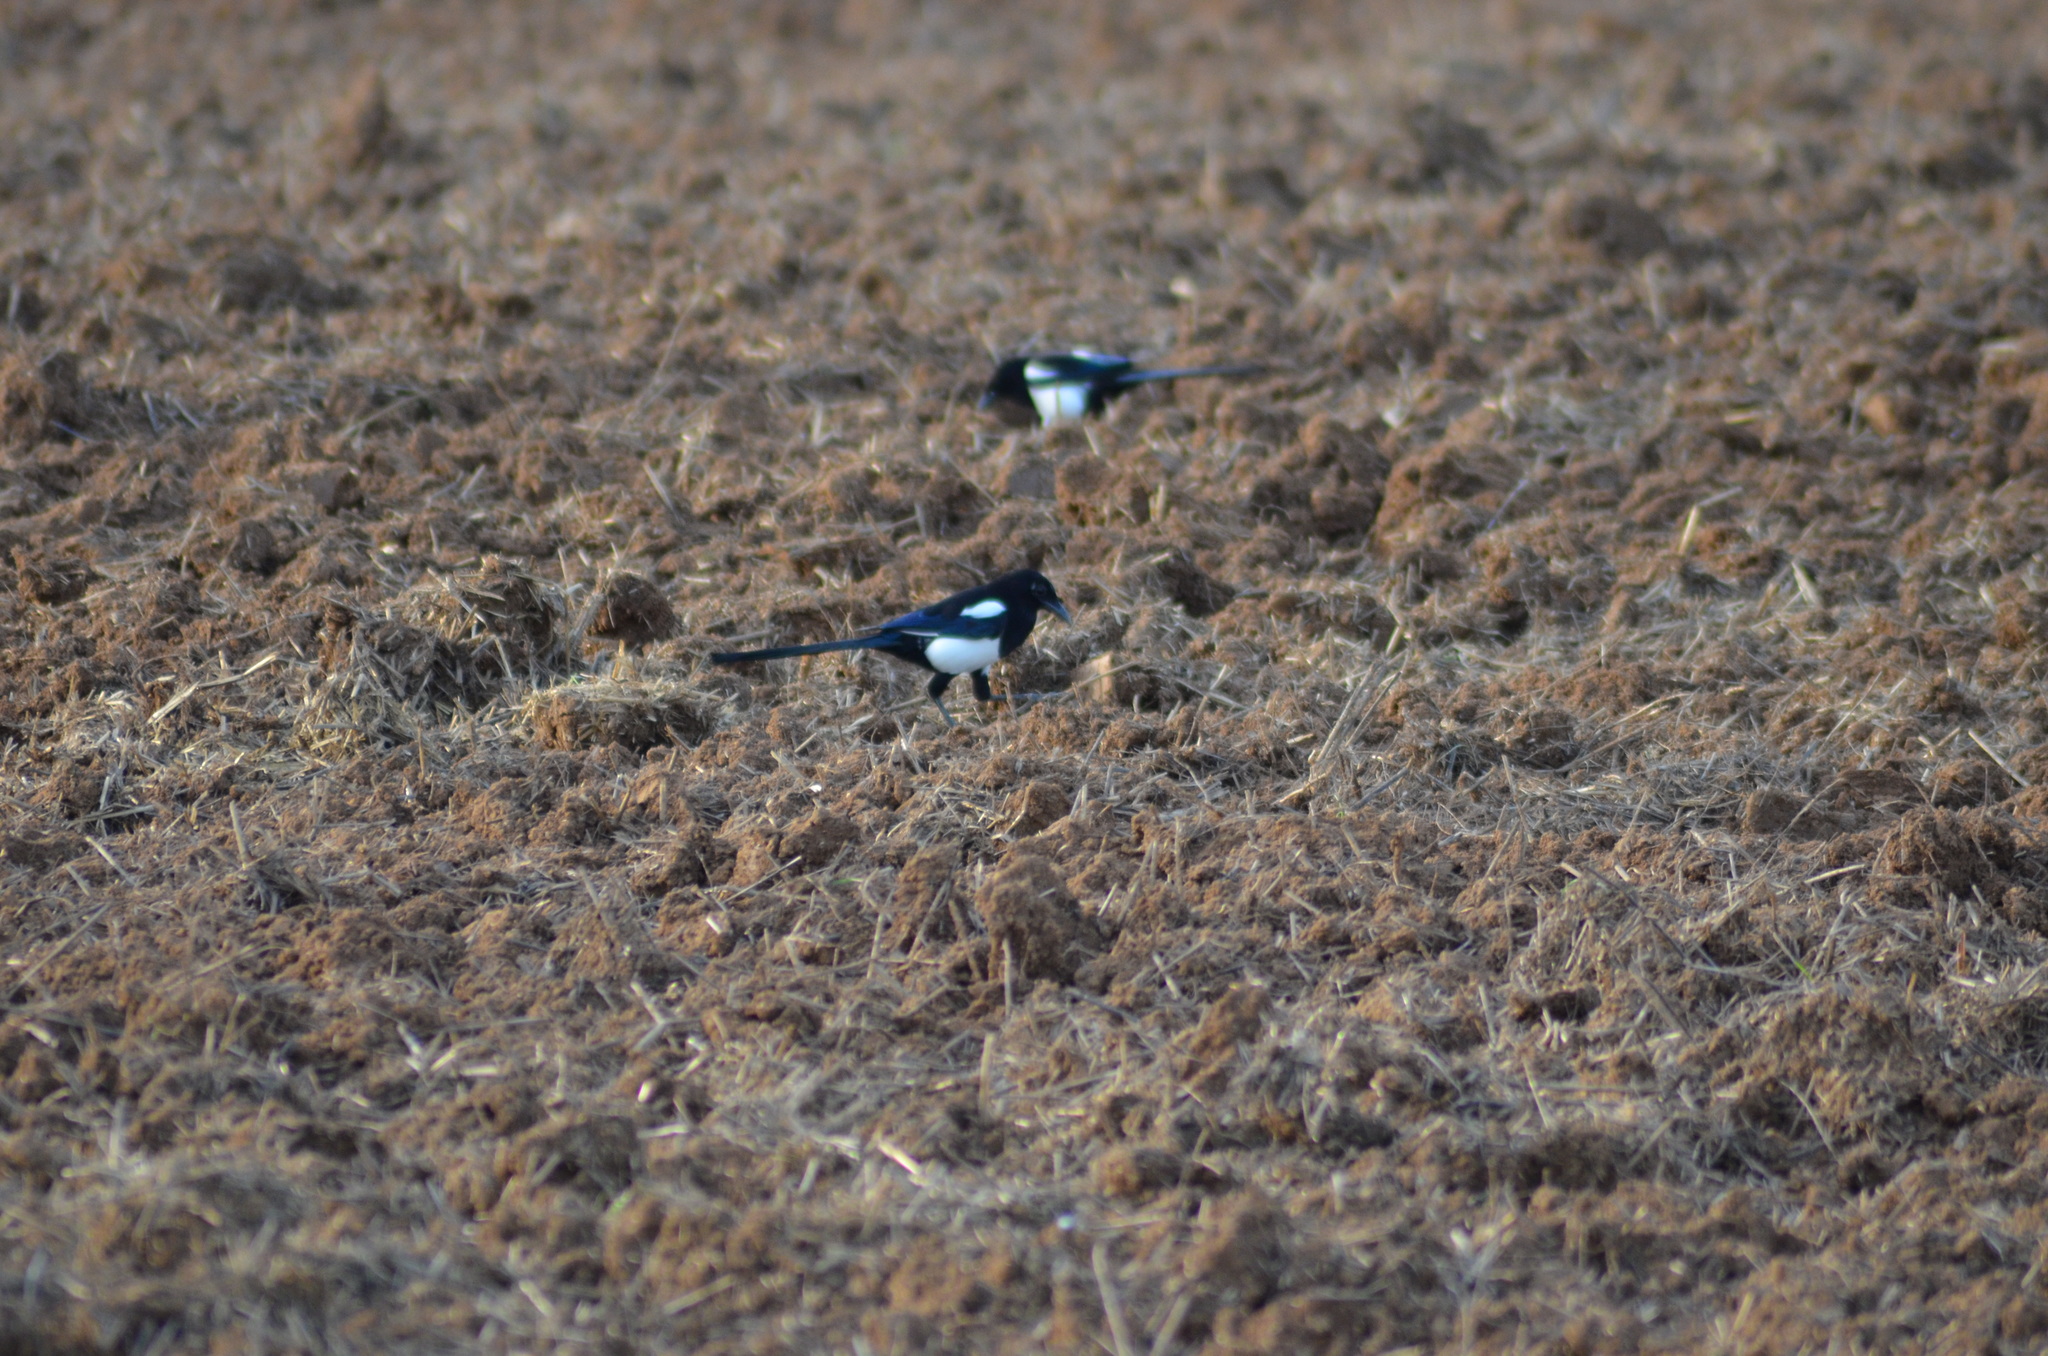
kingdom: Animalia
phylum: Chordata
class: Aves
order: Passeriformes
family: Corvidae
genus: Pica
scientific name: Pica pica
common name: Eurasian magpie
